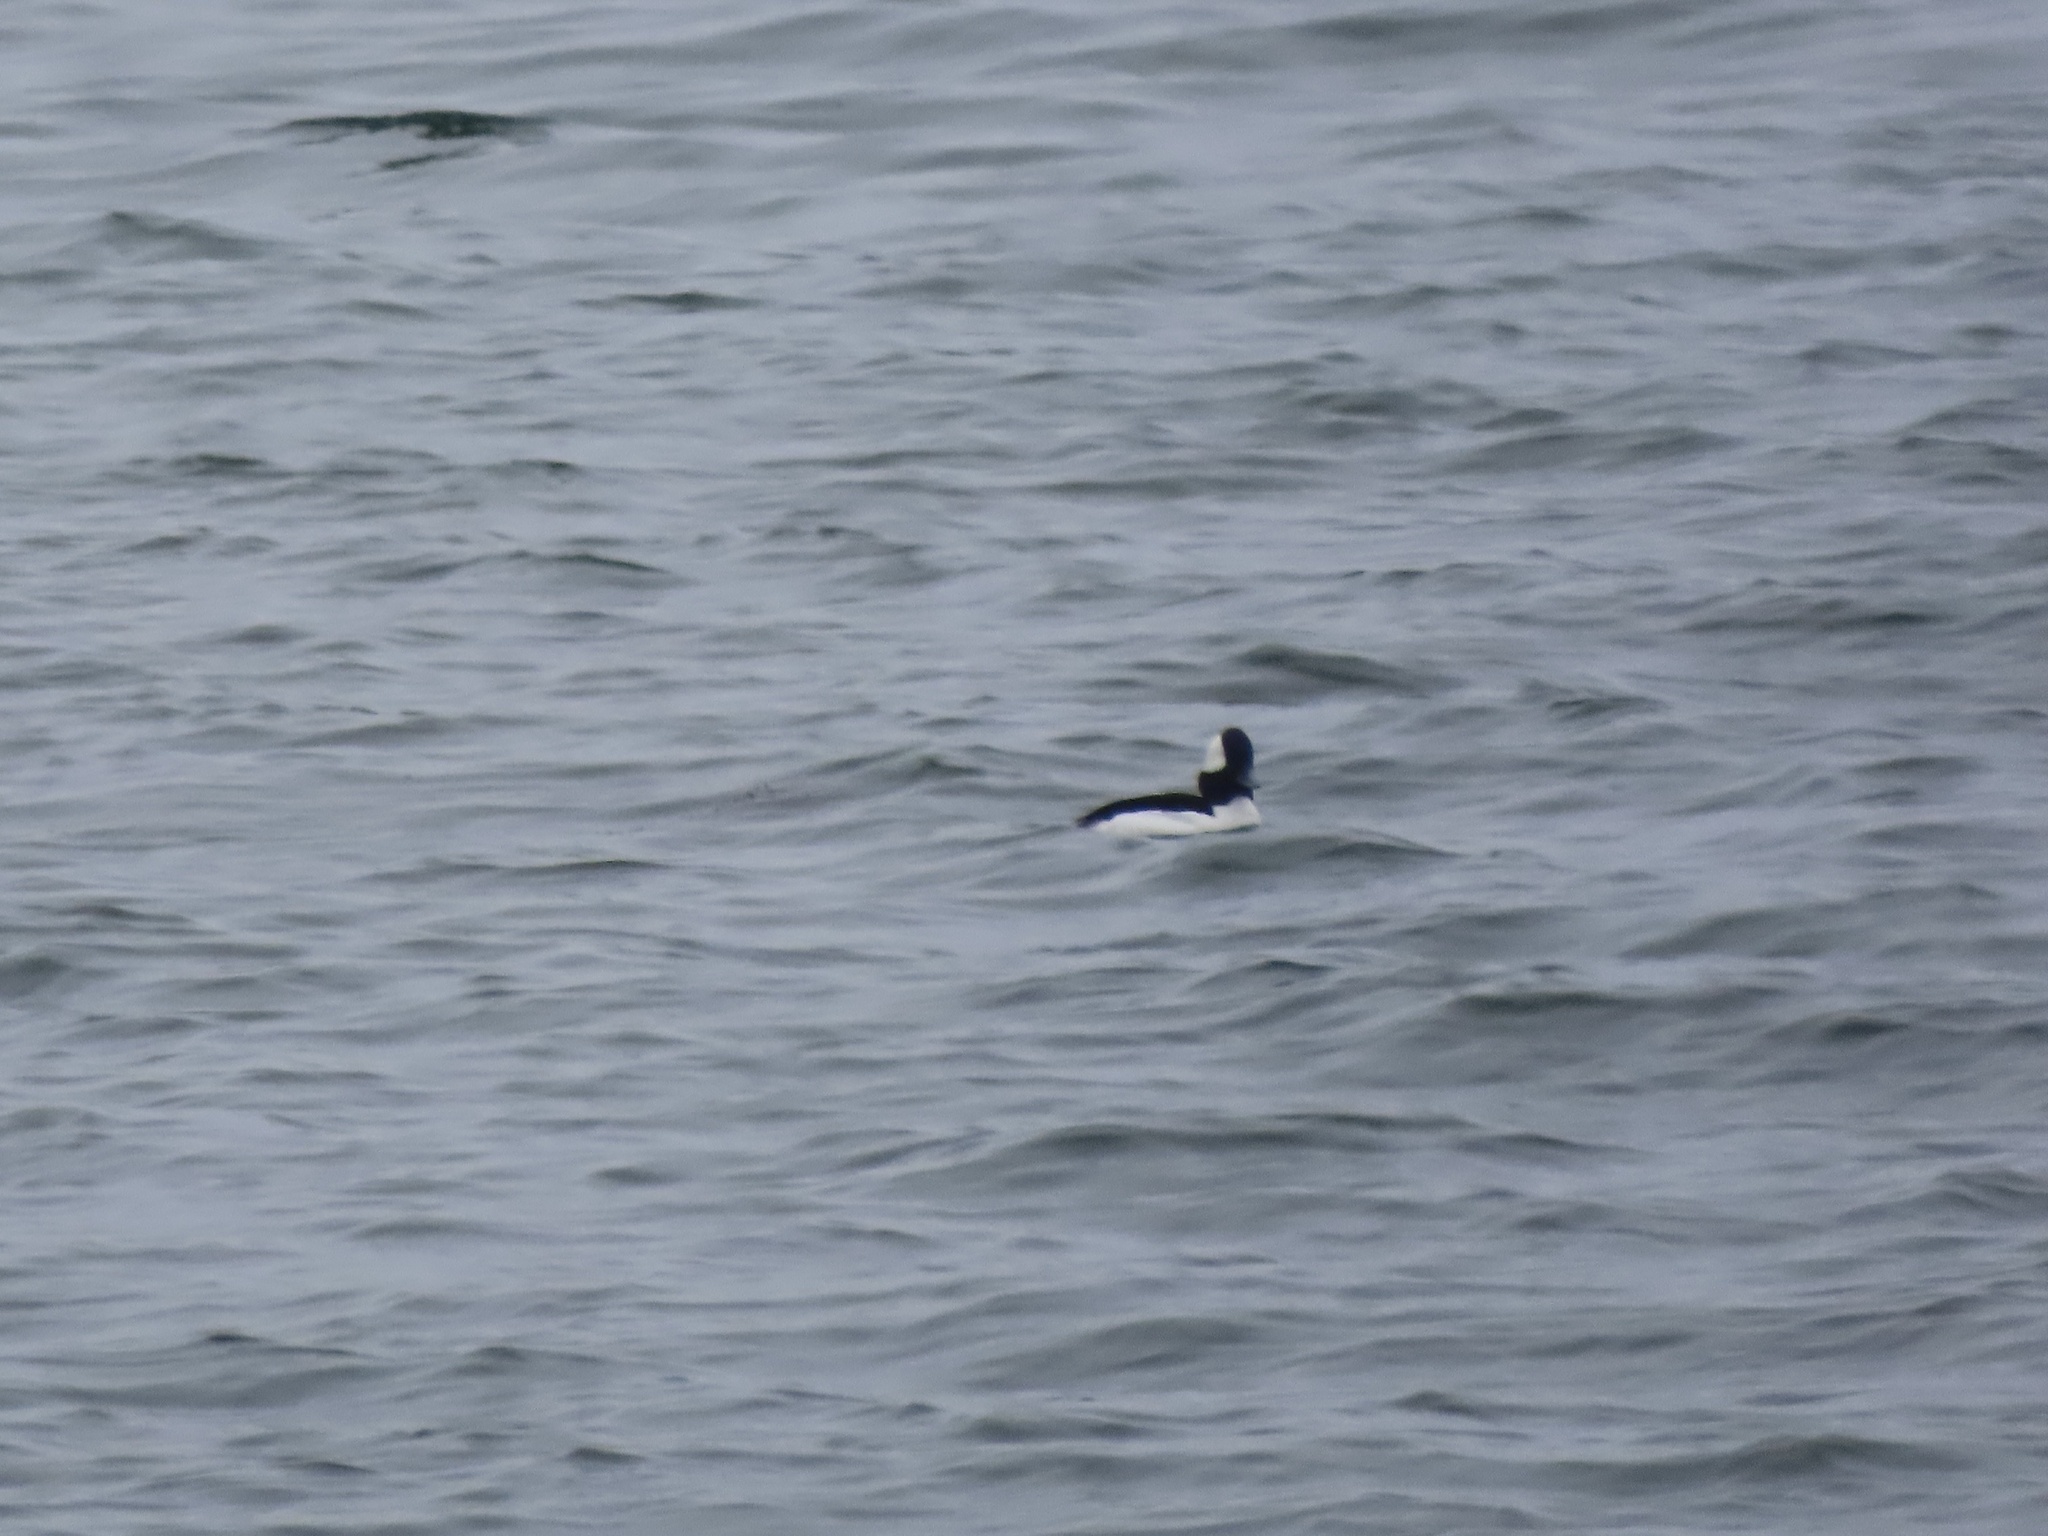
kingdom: Animalia
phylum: Chordata
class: Aves
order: Anseriformes
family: Anatidae
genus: Bucephala
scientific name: Bucephala albeola
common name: Bufflehead
